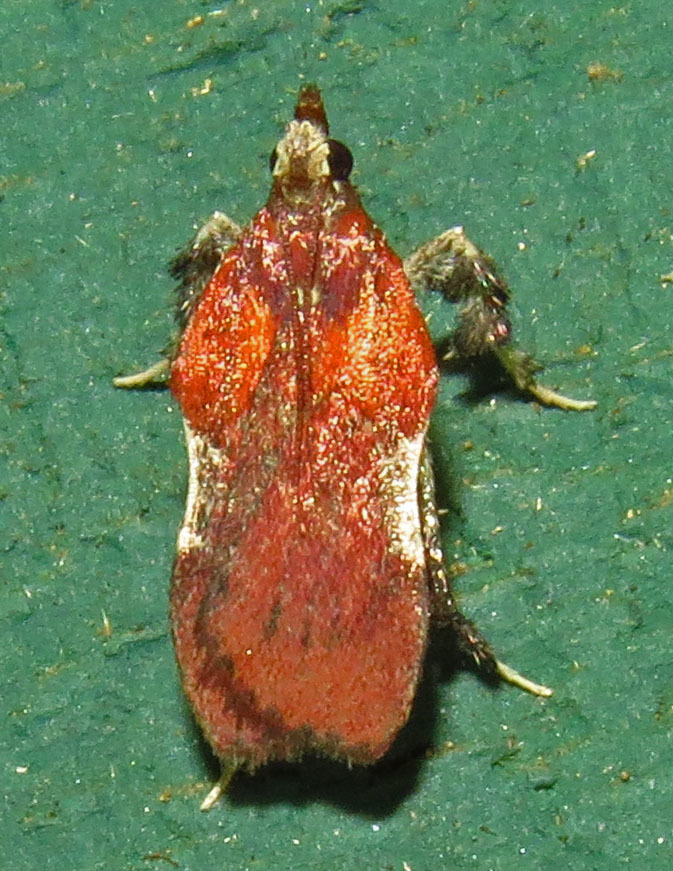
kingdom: Animalia
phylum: Arthropoda
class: Insecta
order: Lepidoptera
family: Pyralidae
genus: Galasa
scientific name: Galasa nigrinodis
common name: Boxwood leaftier moth
